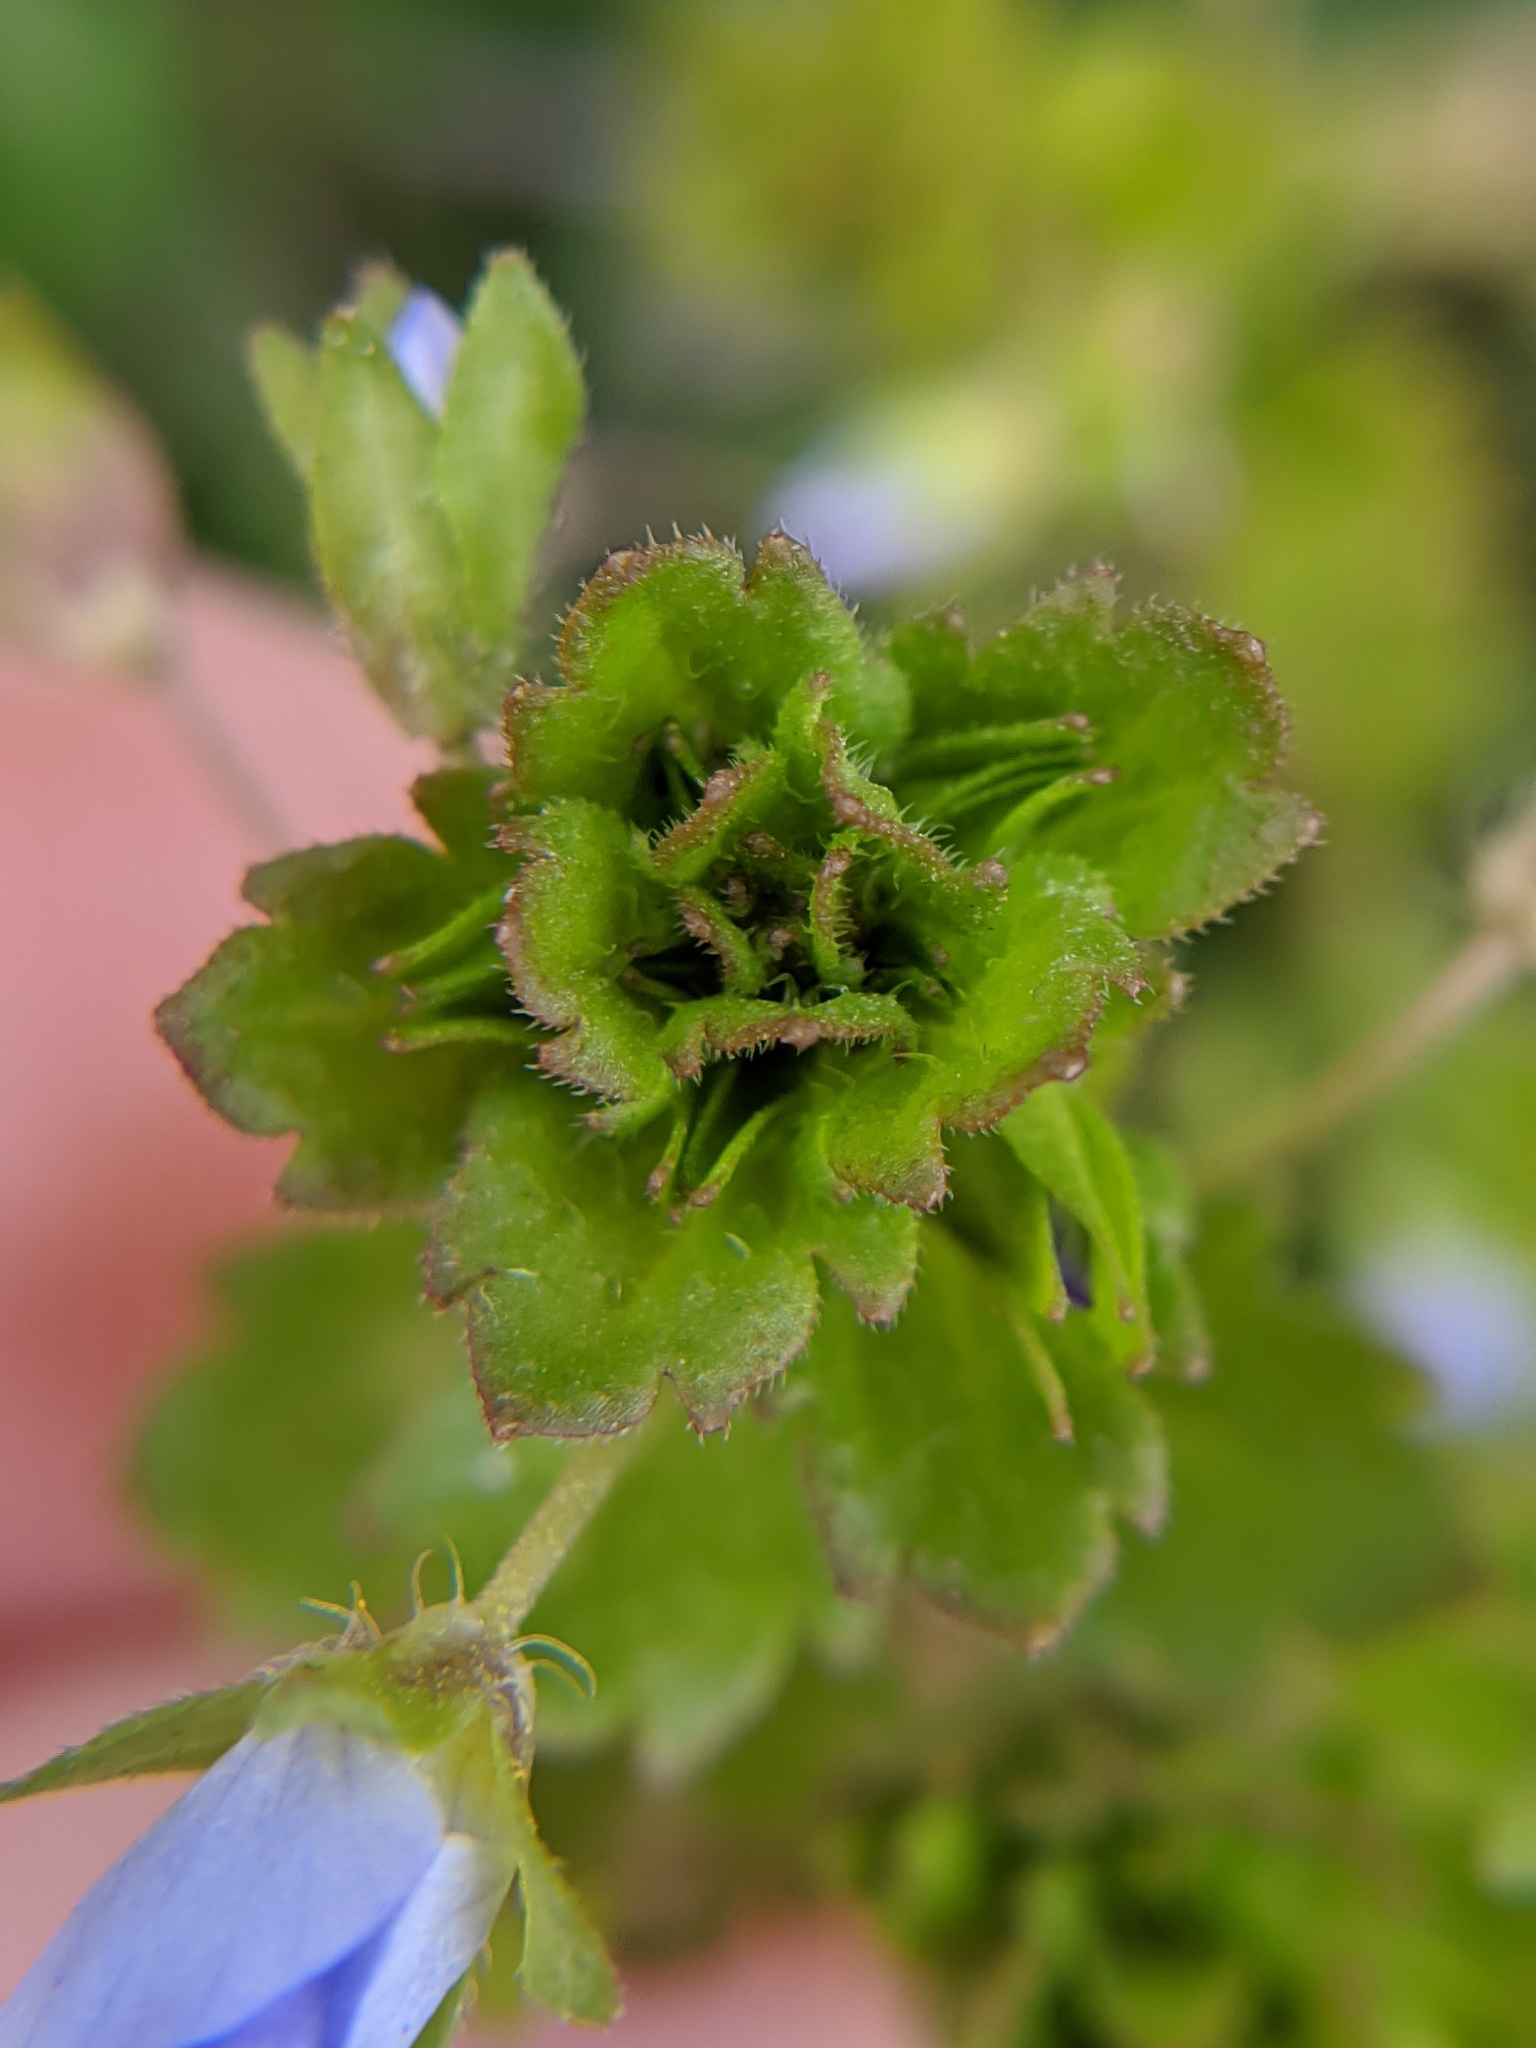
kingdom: Plantae
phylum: Tracheophyta
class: Magnoliopsida
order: Lamiales
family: Plantaginaceae
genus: Veronica
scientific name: Veronica persica
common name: Common field-speedwell
